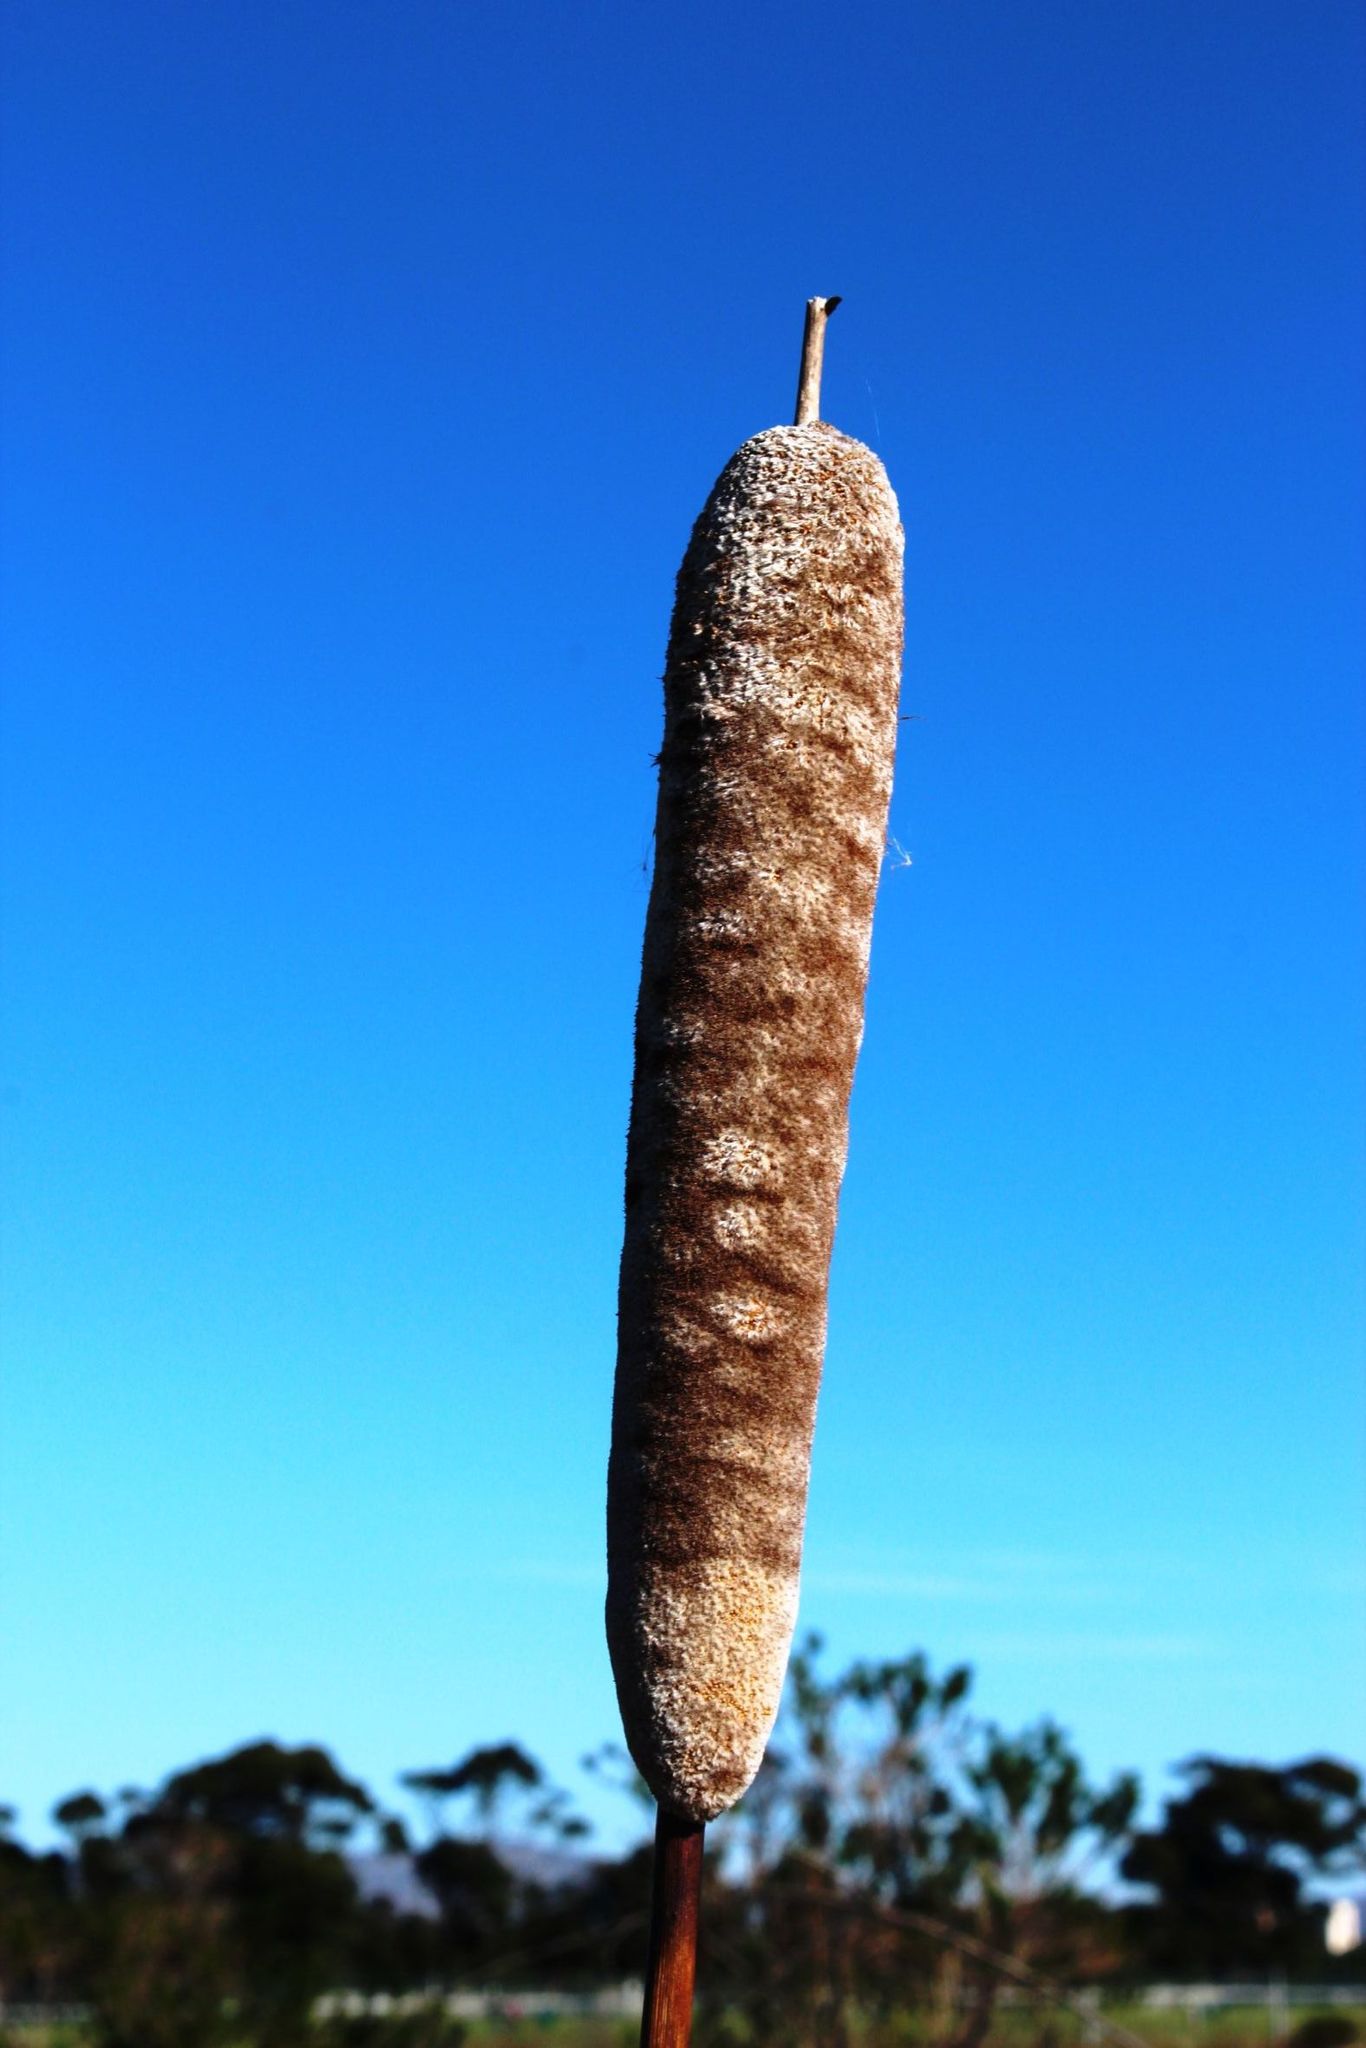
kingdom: Plantae
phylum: Tracheophyta
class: Liliopsida
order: Poales
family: Typhaceae
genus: Typha
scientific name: Typha capensis
